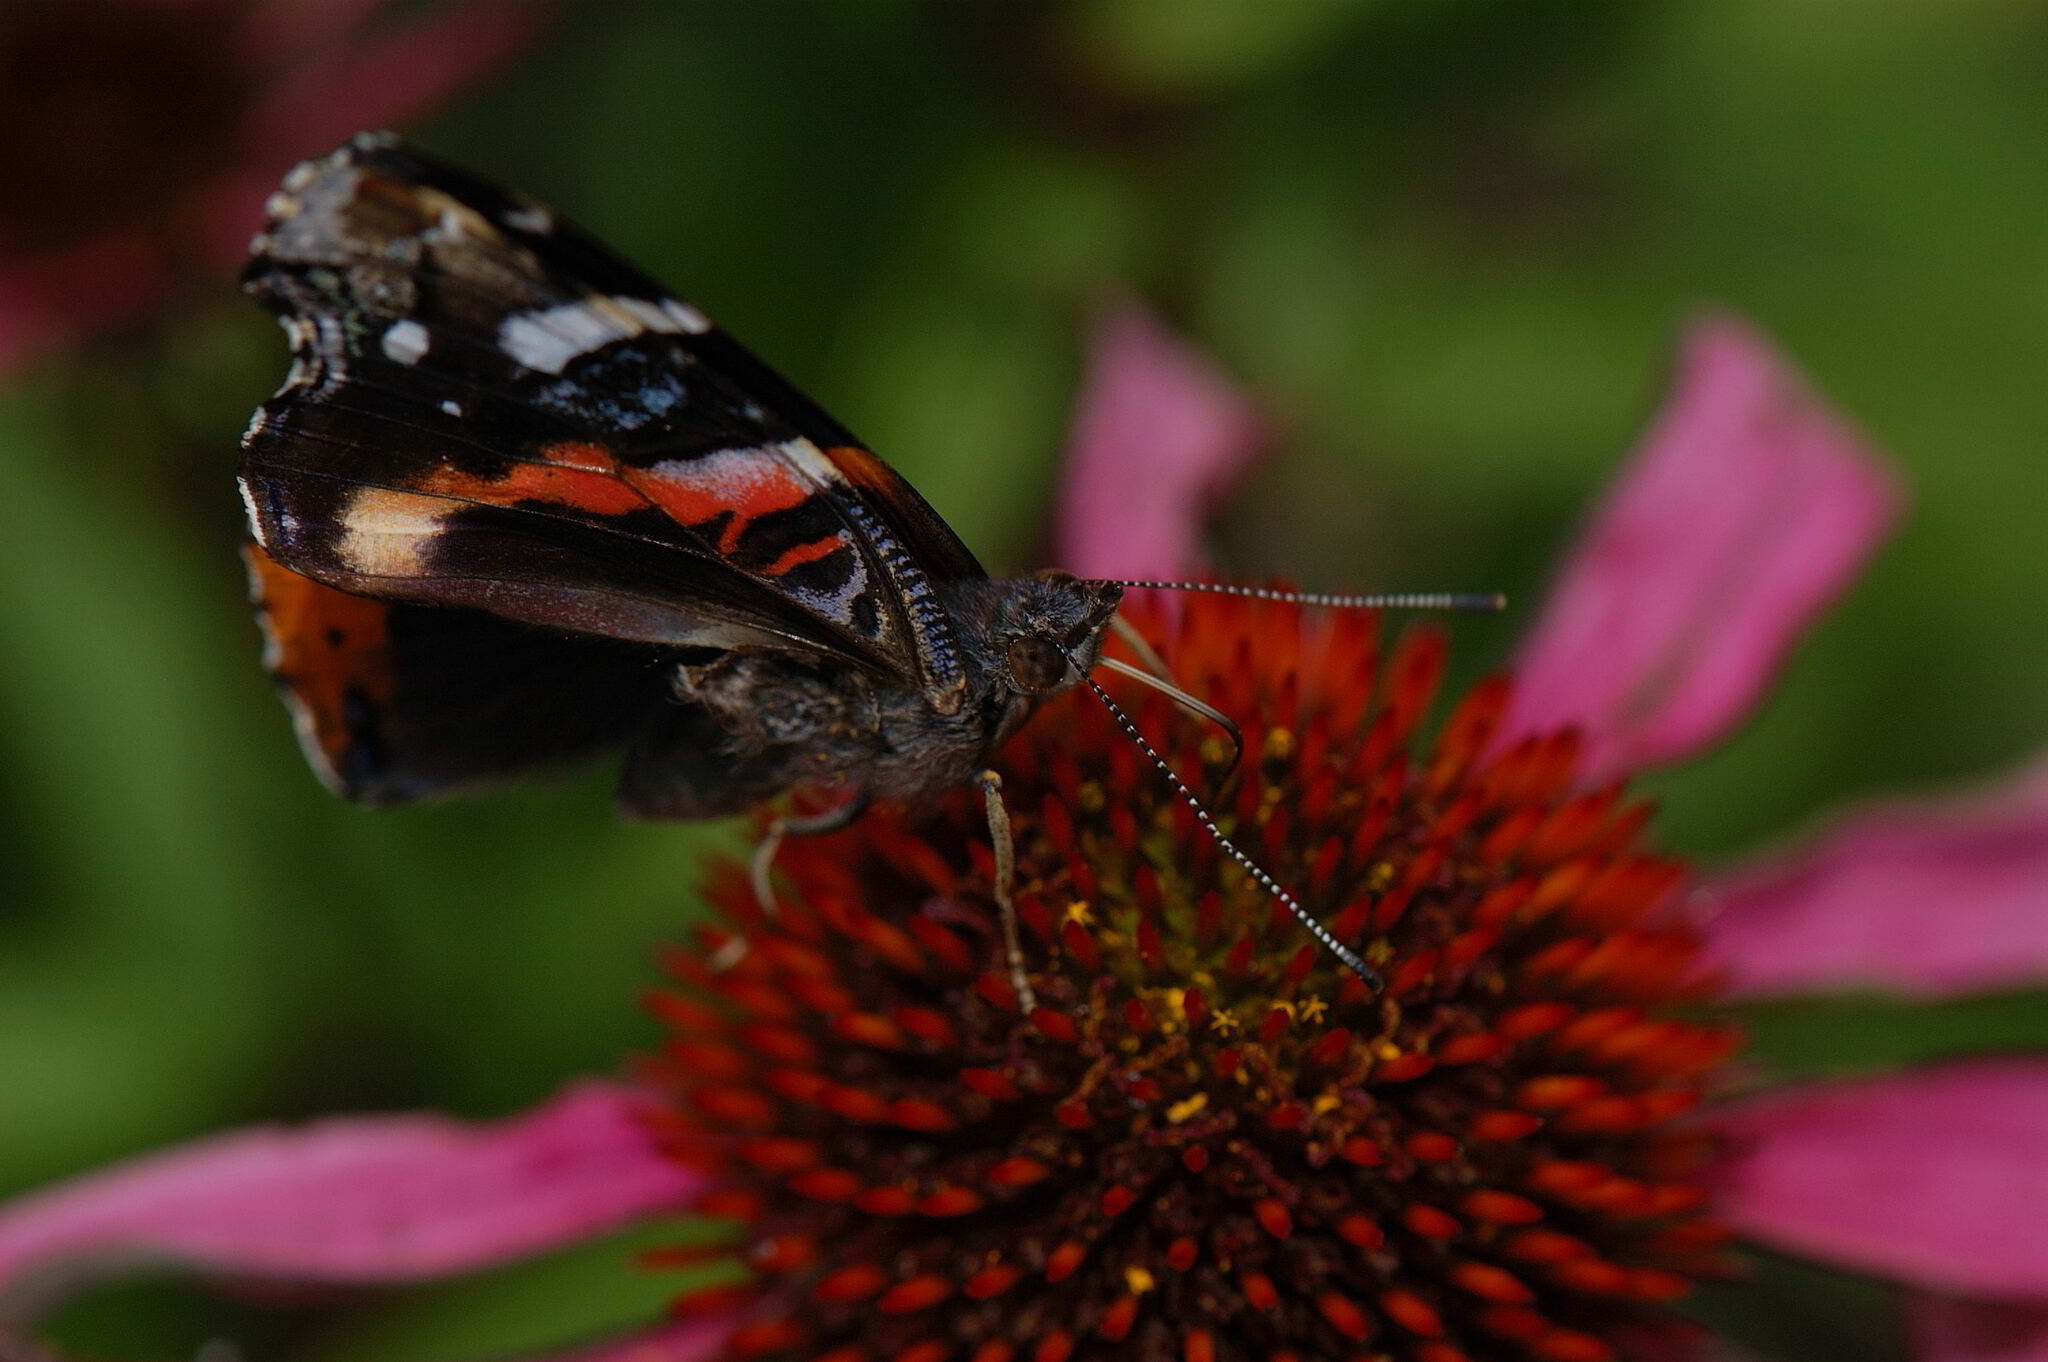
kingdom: Animalia
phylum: Arthropoda
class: Insecta
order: Lepidoptera
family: Nymphalidae
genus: Vanessa
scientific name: Vanessa atalanta
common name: Red admiral
